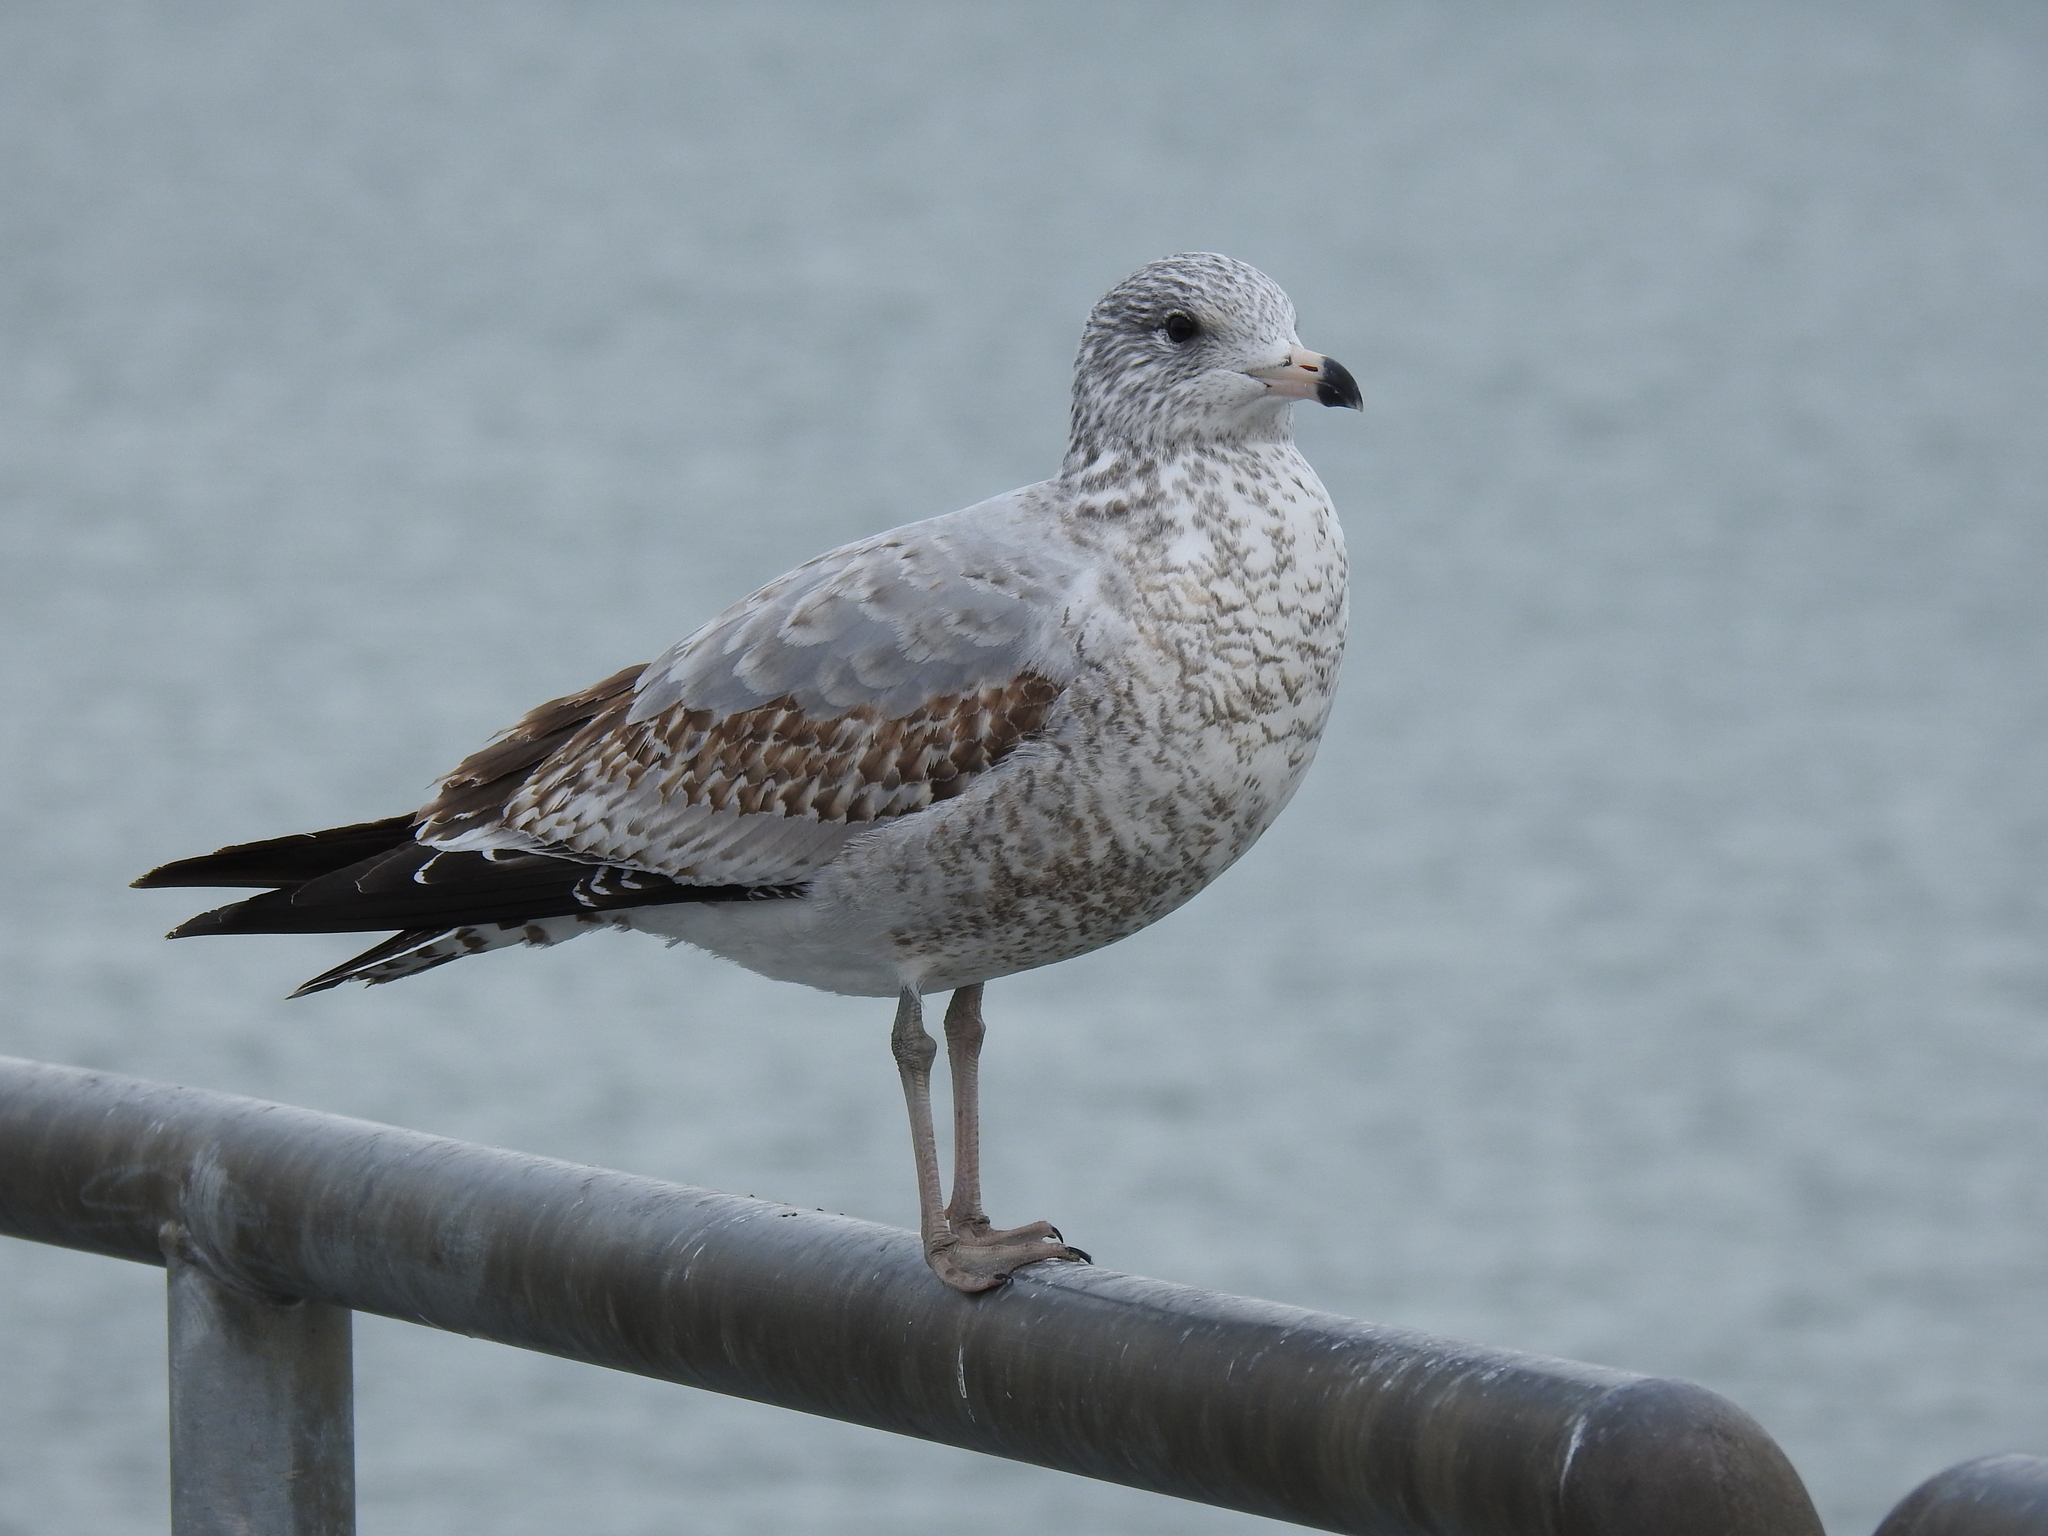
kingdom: Animalia
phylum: Chordata
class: Aves
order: Charadriiformes
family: Laridae
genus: Larus
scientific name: Larus delawarensis
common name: Ring-billed gull
